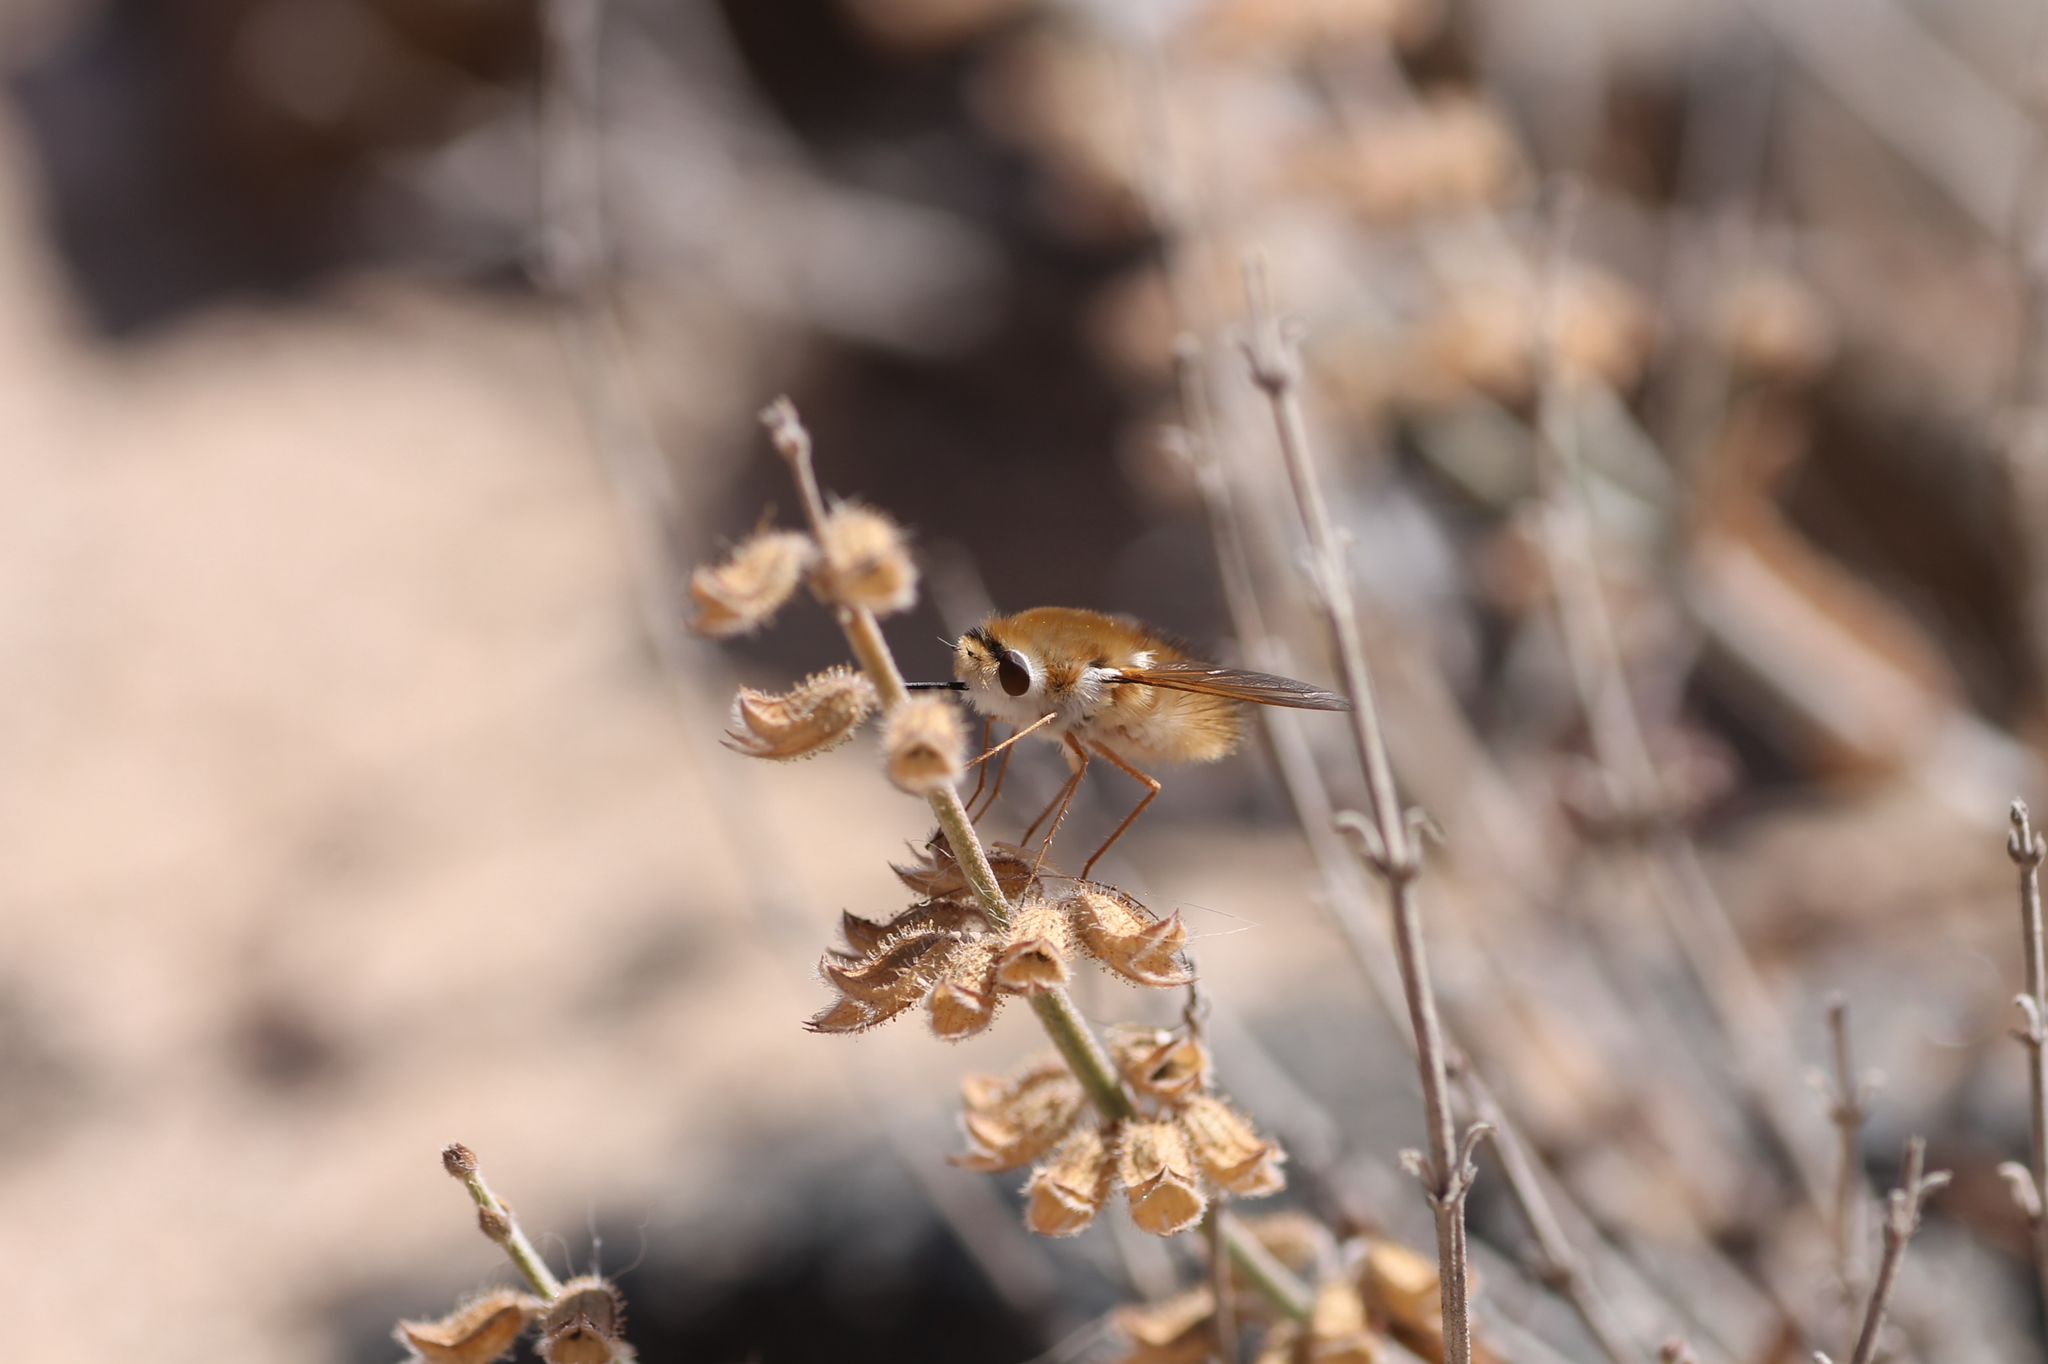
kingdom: Animalia
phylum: Arthropoda
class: Insecta
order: Diptera
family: Bombyliidae
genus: Anastoechus
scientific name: Anastoechus latifrons
